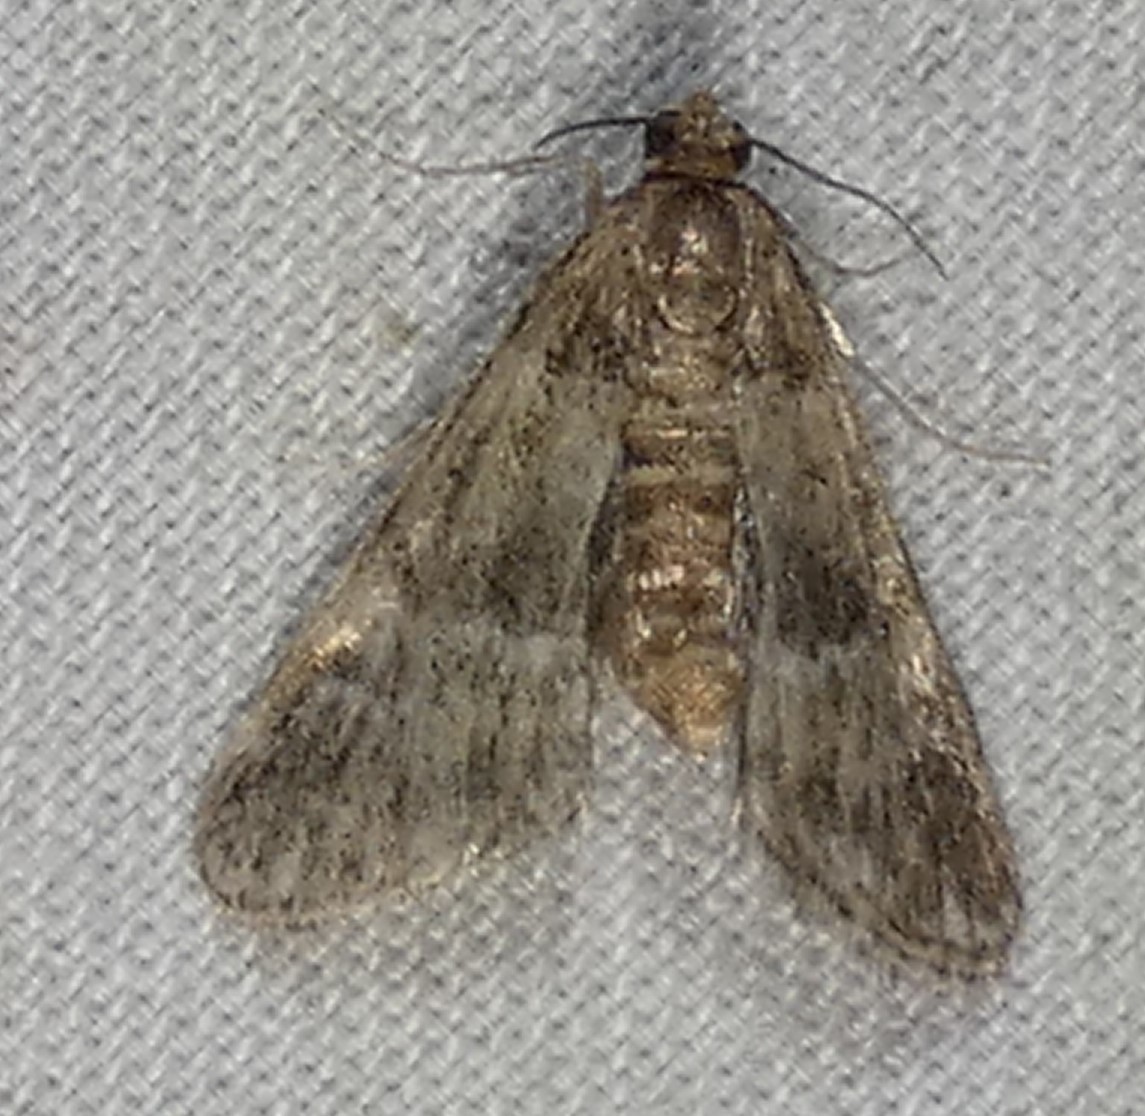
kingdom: Animalia
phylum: Arthropoda
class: Insecta
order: Lepidoptera
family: Crambidae
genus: Elophila
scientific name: Elophila obliteralis
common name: Waterlily leafcutter moth
